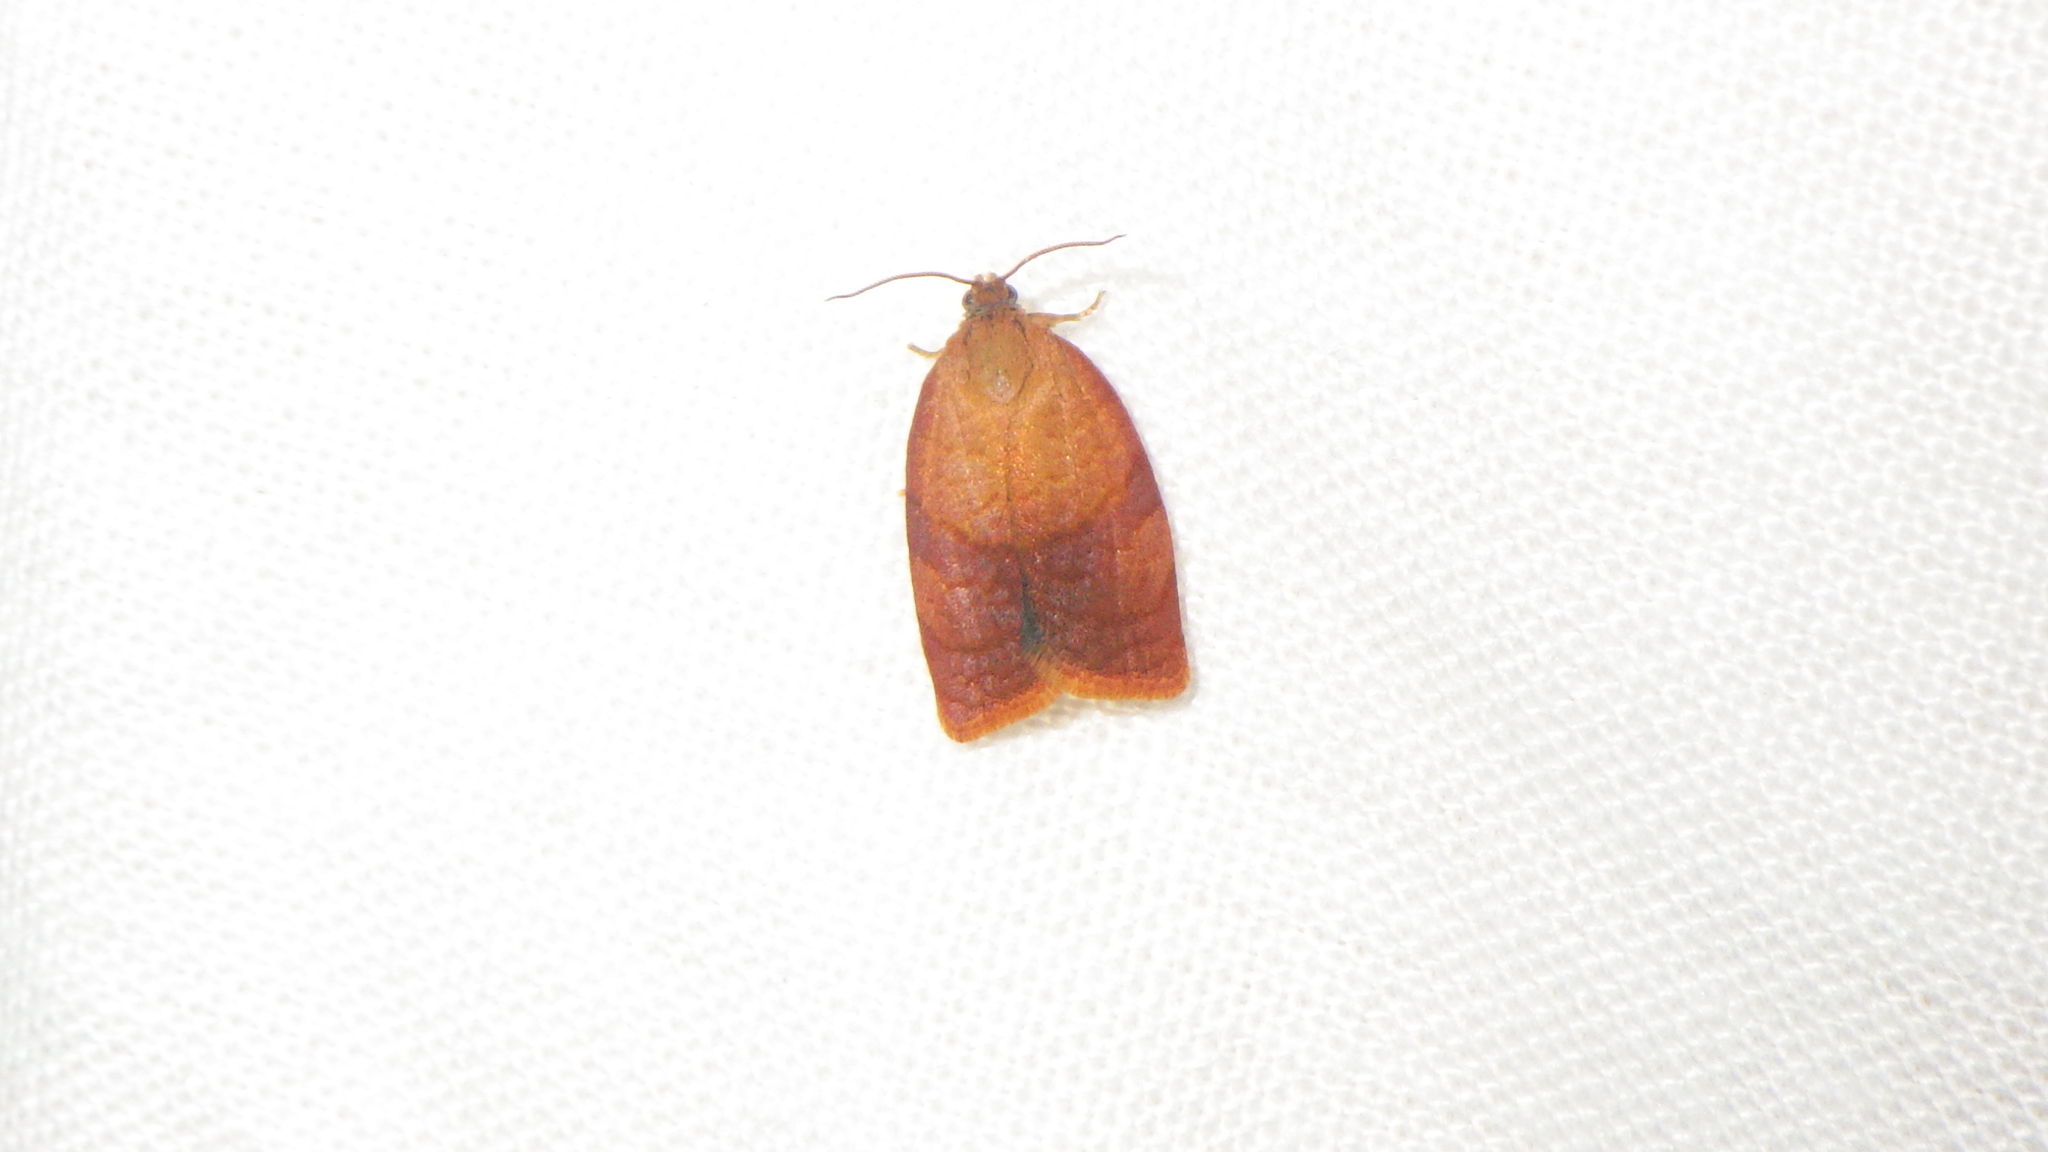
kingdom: Animalia
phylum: Arthropoda
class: Insecta
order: Lepidoptera
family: Tortricidae
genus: Cacoecimorpha
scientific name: Cacoecimorpha pronubana
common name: Carnation tortrix
